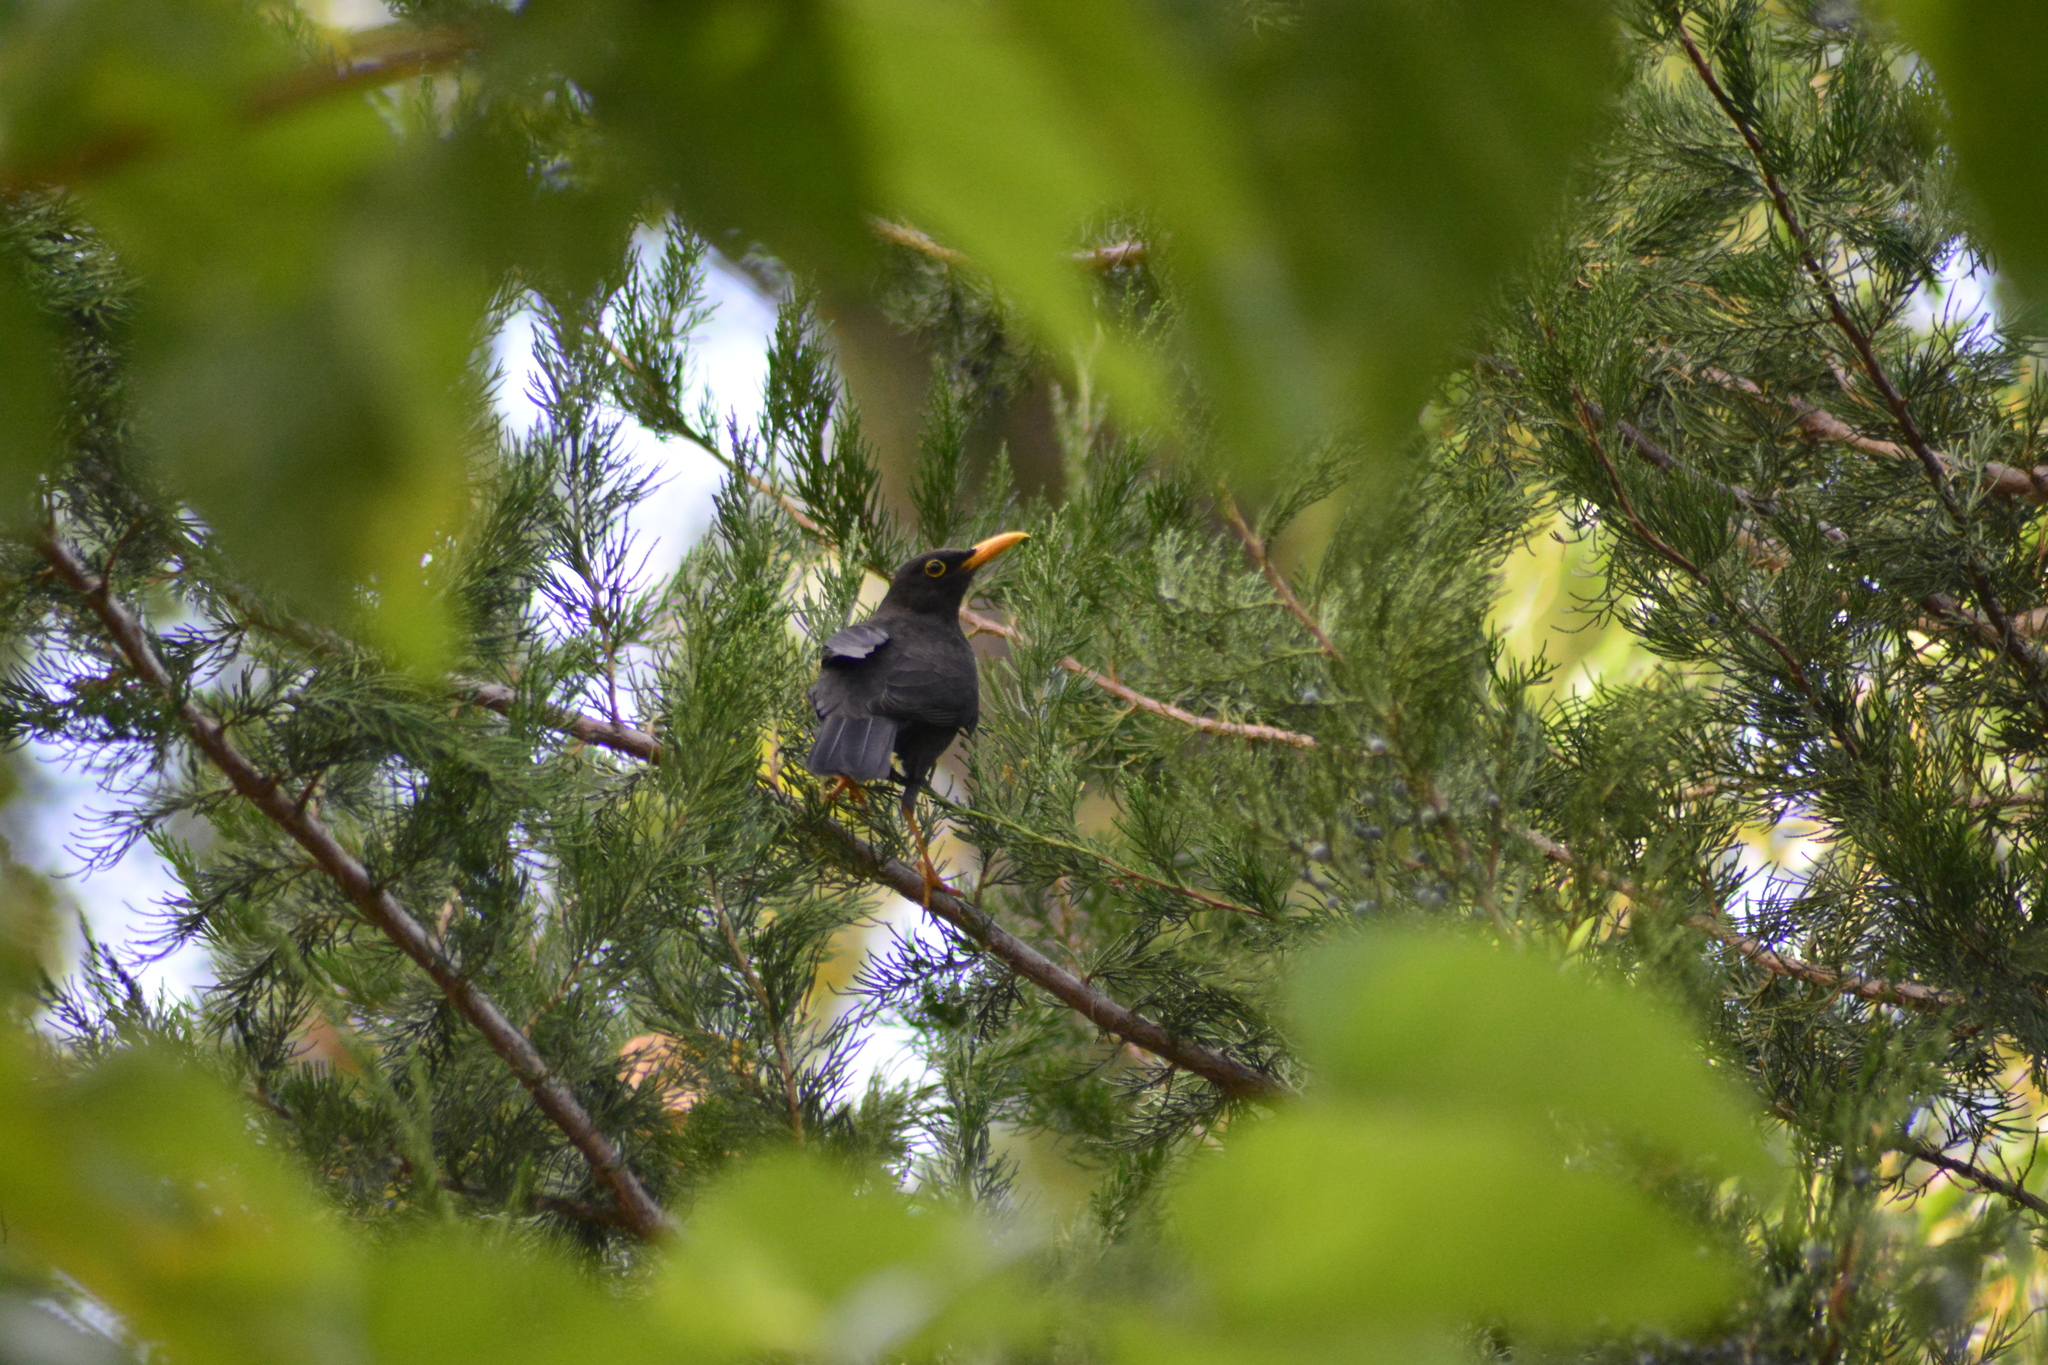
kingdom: Animalia
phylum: Chordata
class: Aves
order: Passeriformes
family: Turdidae
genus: Turdus
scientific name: Turdus chiguanco
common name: Chiguanco thrush
